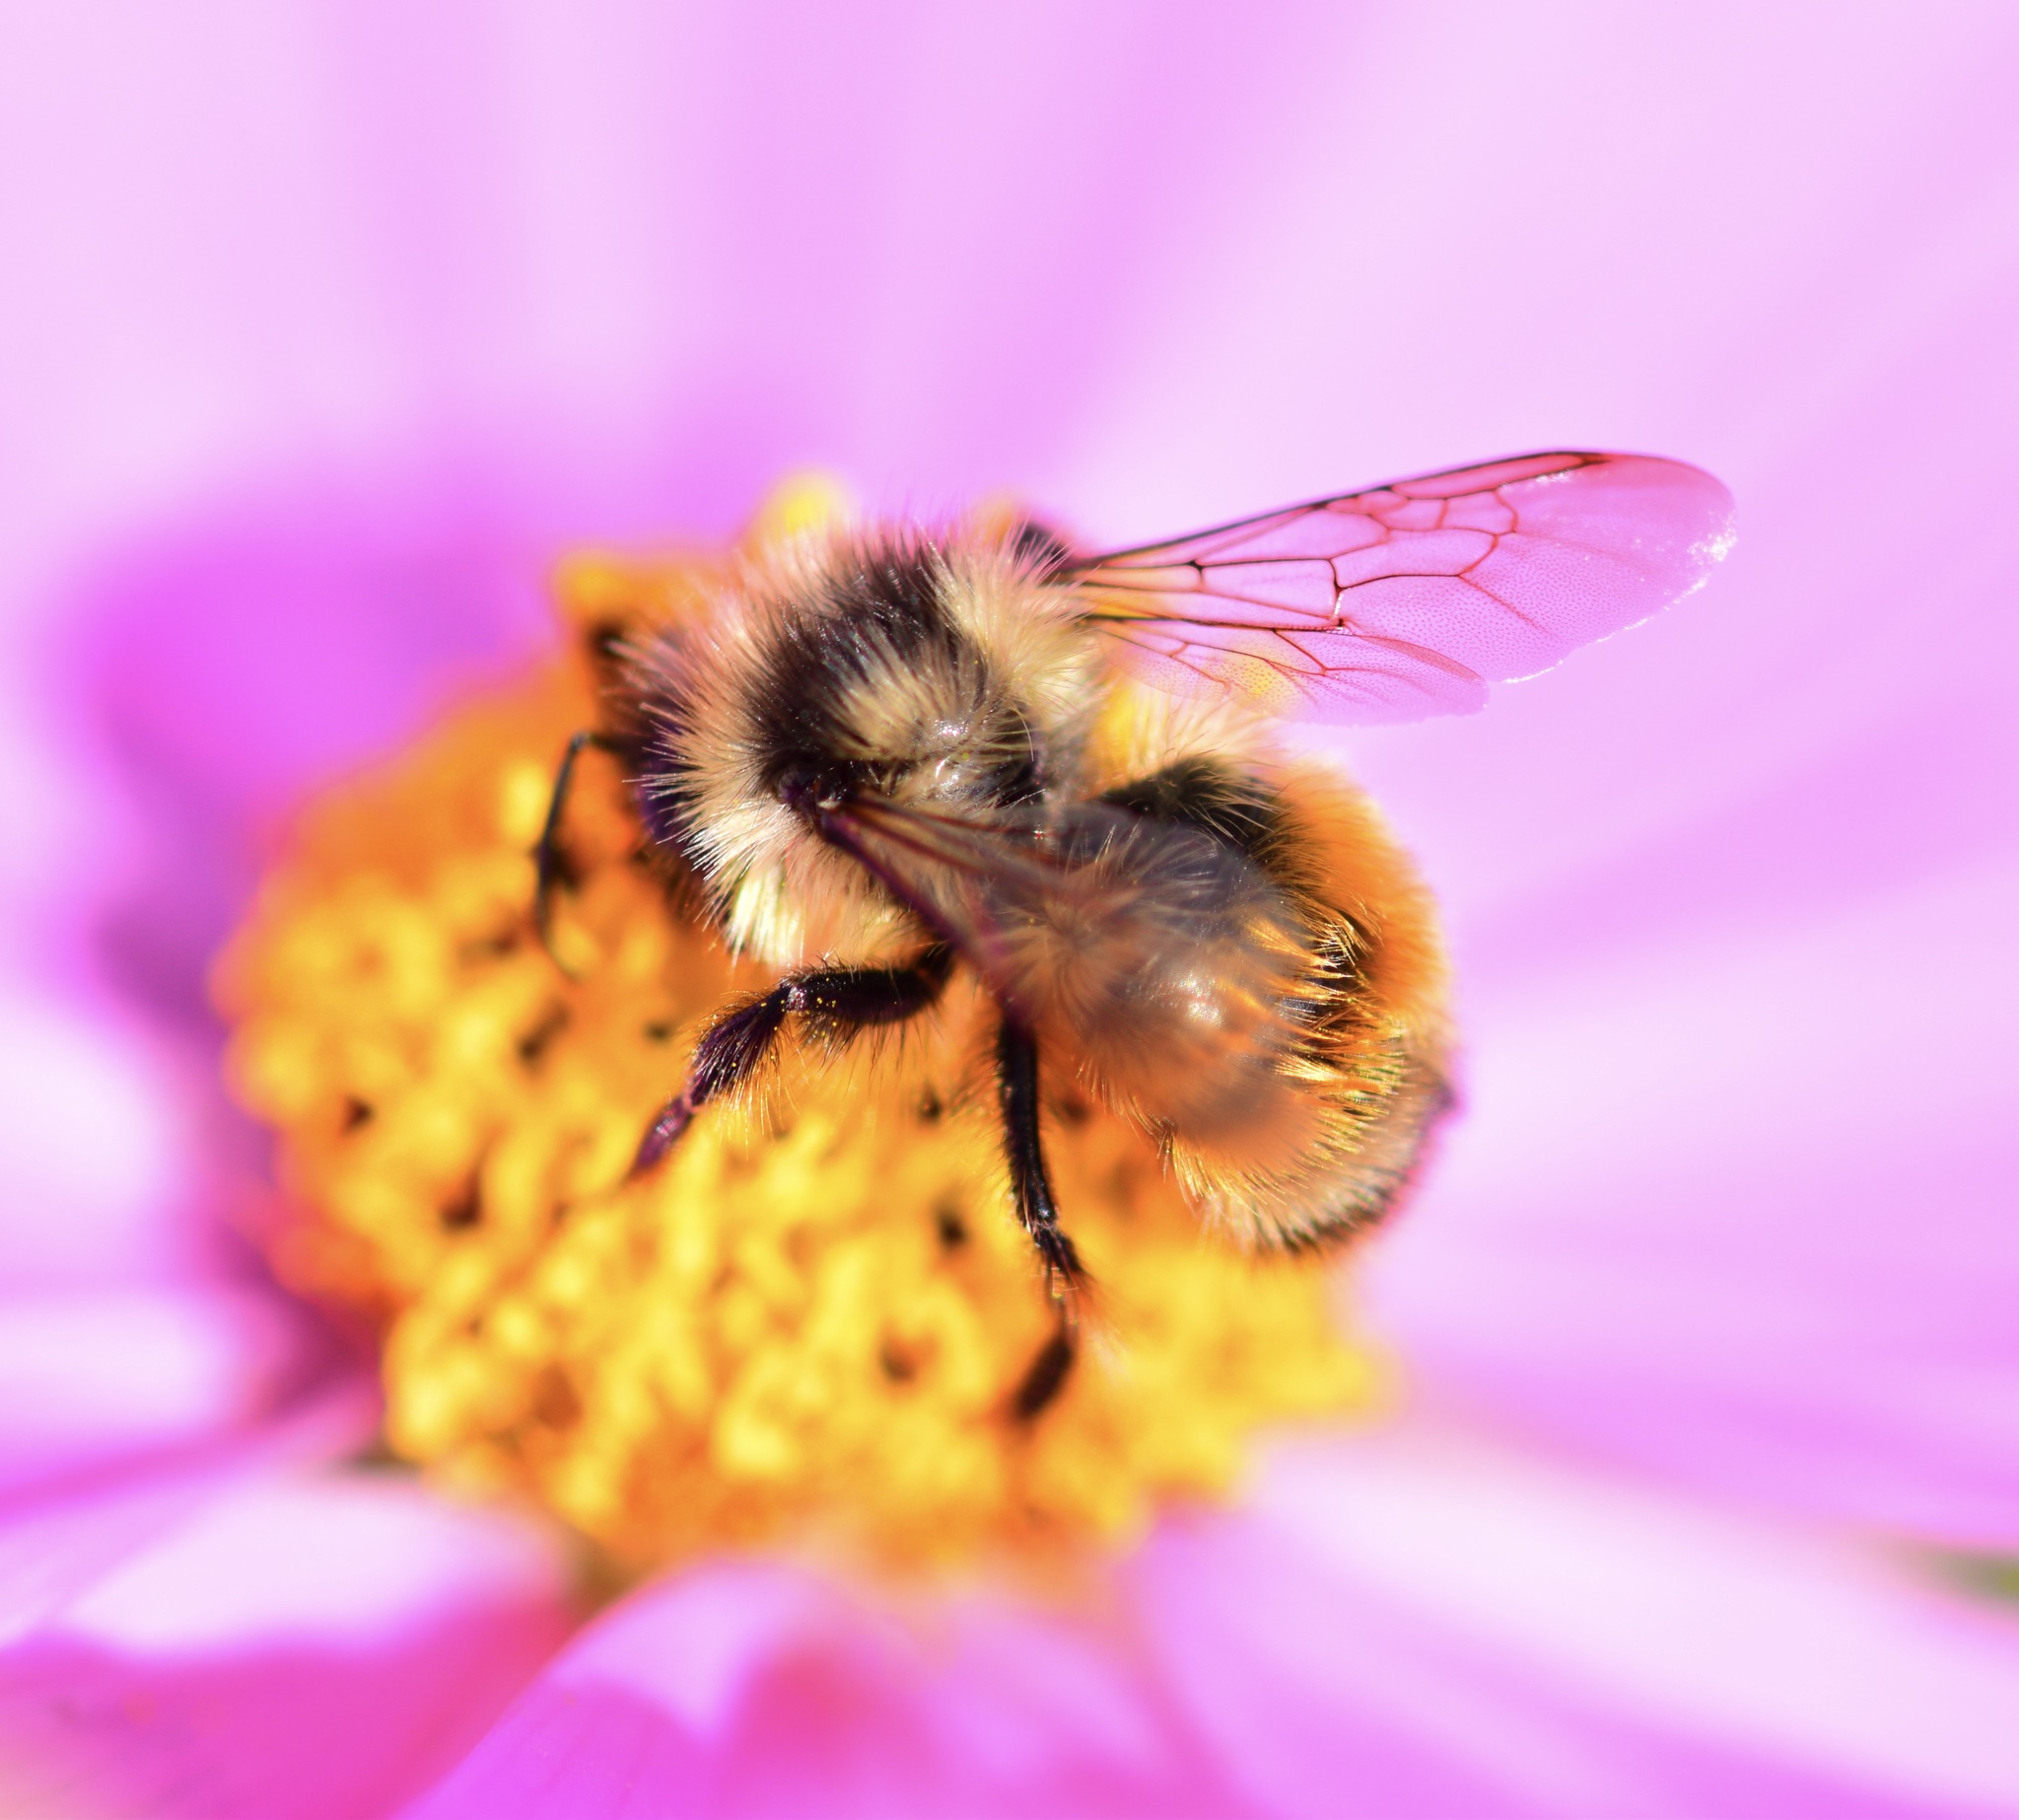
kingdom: Animalia
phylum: Arthropoda
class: Insecta
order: Hymenoptera
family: Apidae
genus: Bombus
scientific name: Bombus ternarius
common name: Tri-colored bumble bee
